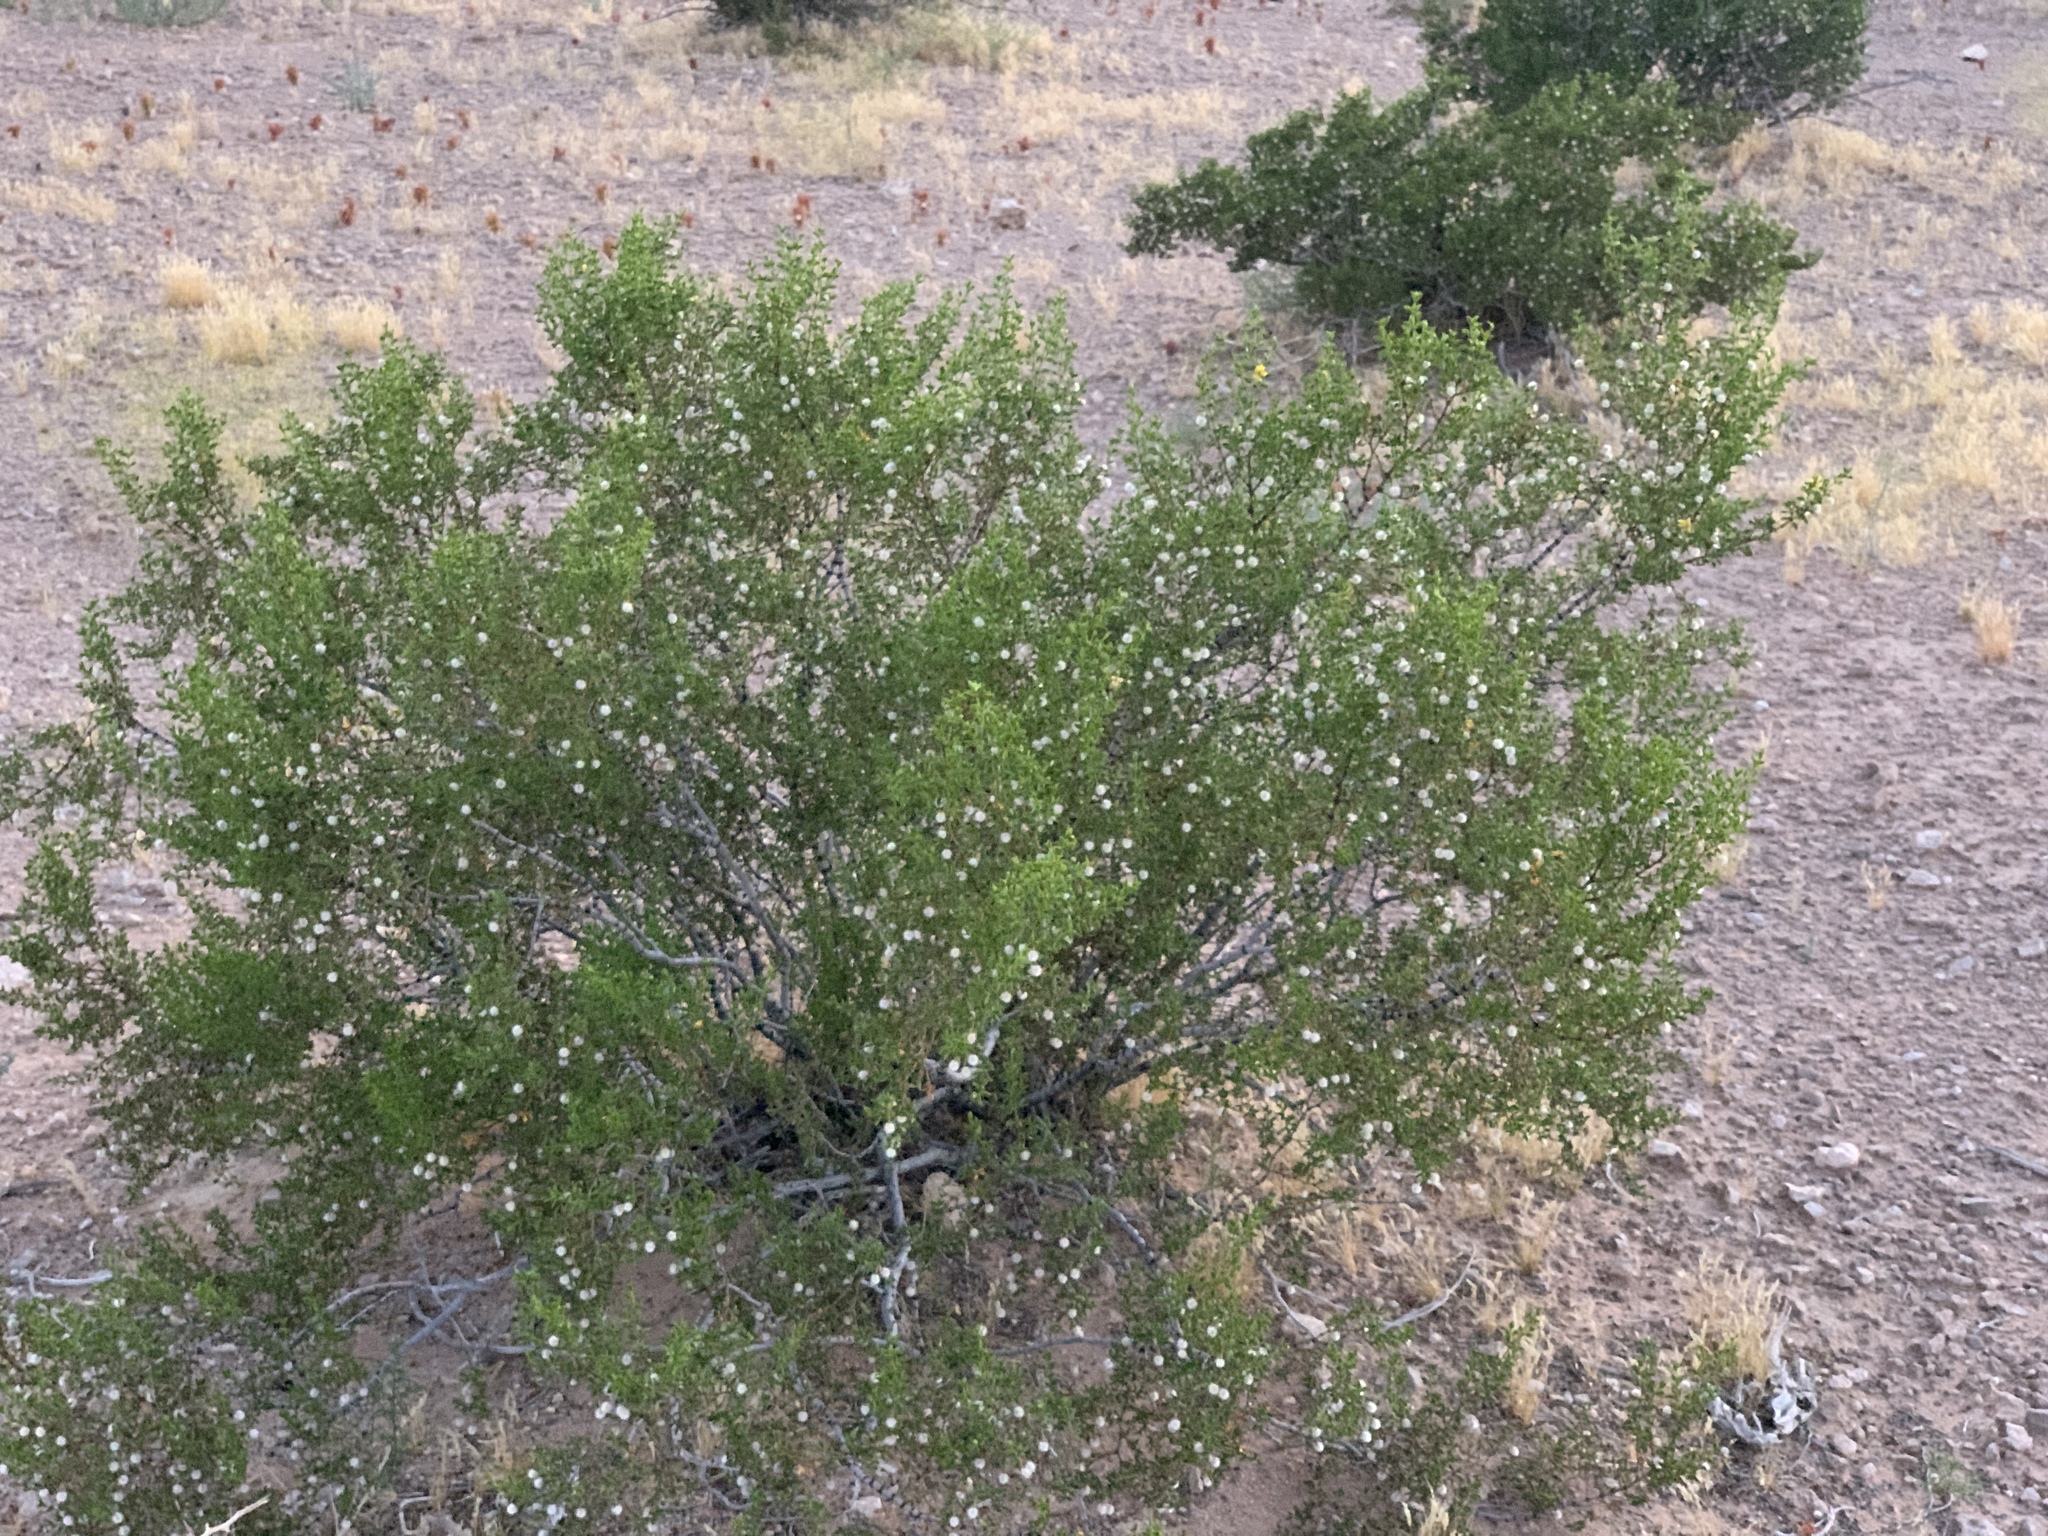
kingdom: Plantae
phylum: Tracheophyta
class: Magnoliopsida
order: Zygophyllales
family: Zygophyllaceae
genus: Larrea
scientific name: Larrea tridentata
